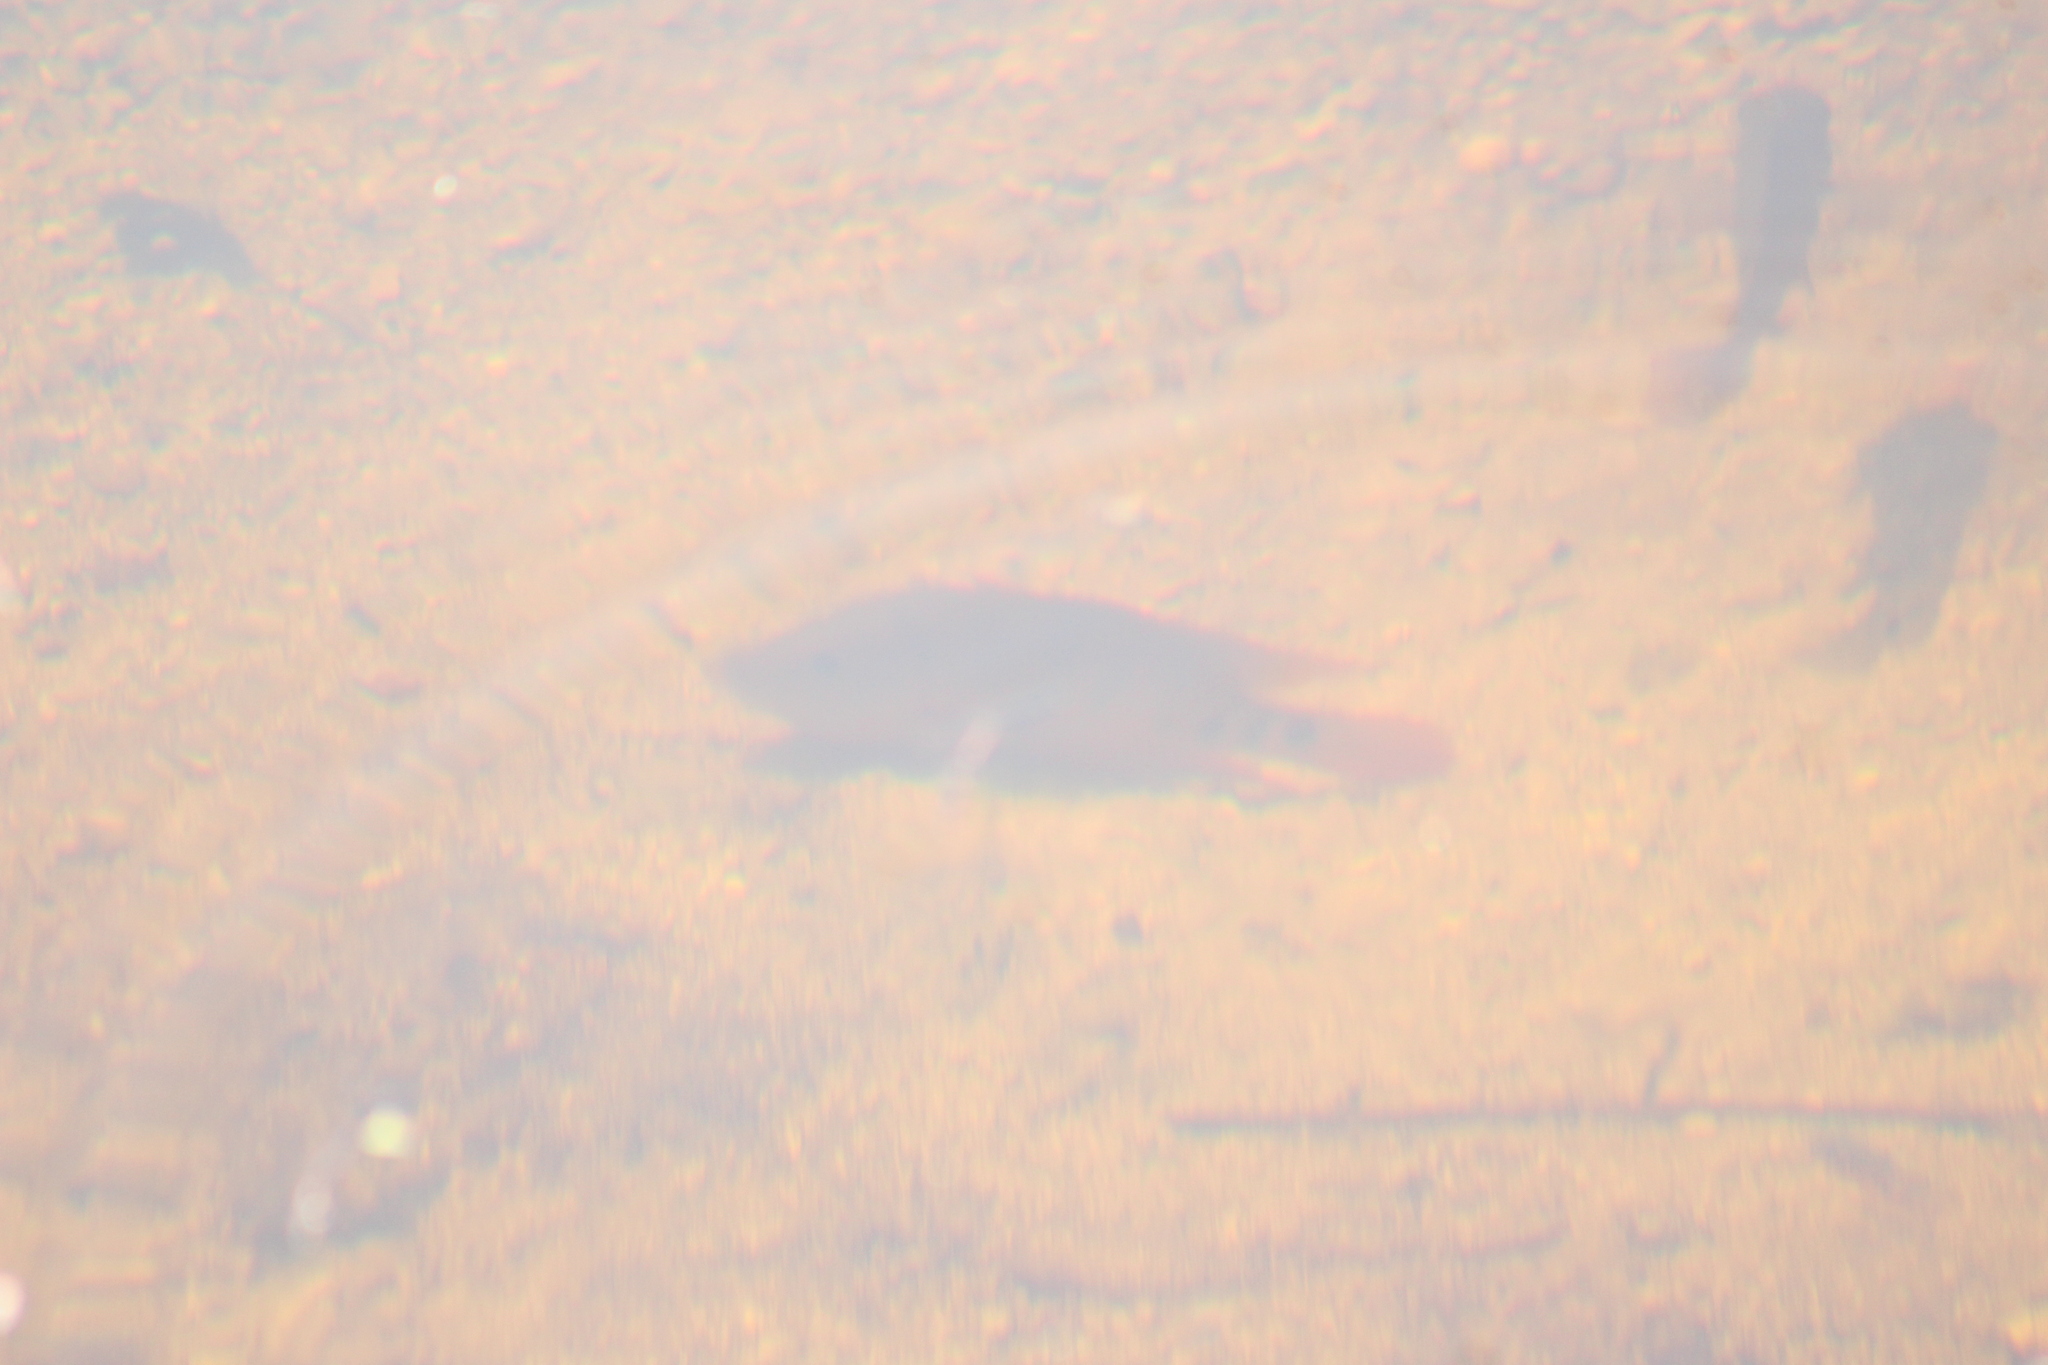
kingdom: Animalia
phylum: Chordata
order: Perciformes
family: Cichlidae
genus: Mayaheros
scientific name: Mayaheros urophthalmus
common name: Mayan cichlid
